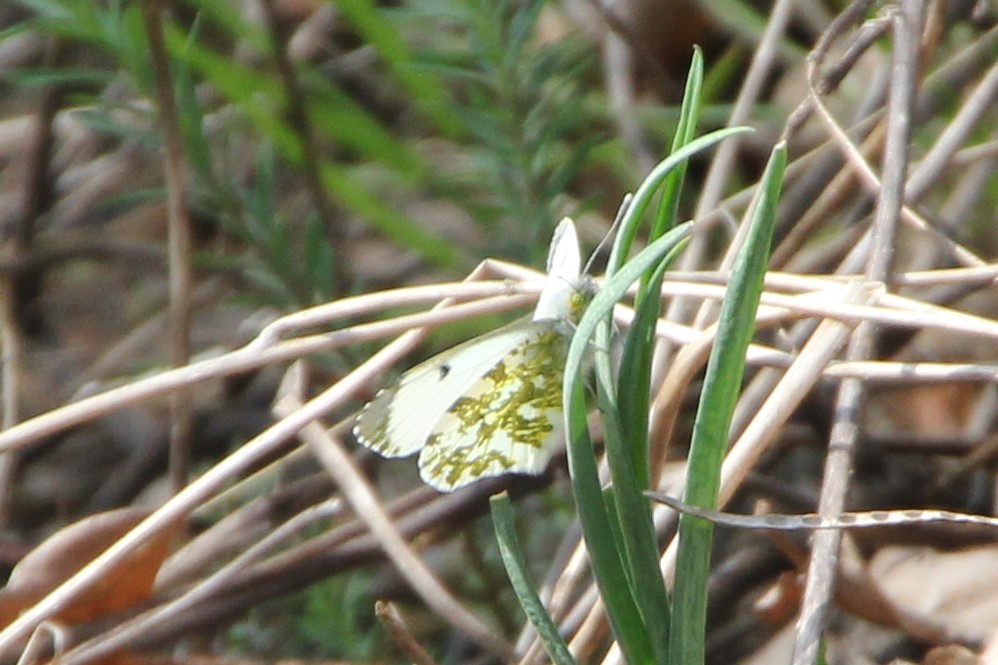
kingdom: Animalia
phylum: Arthropoda
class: Insecta
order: Lepidoptera
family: Pieridae
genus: Anthocharis
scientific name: Anthocharis cardamines
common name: Orange-tip
